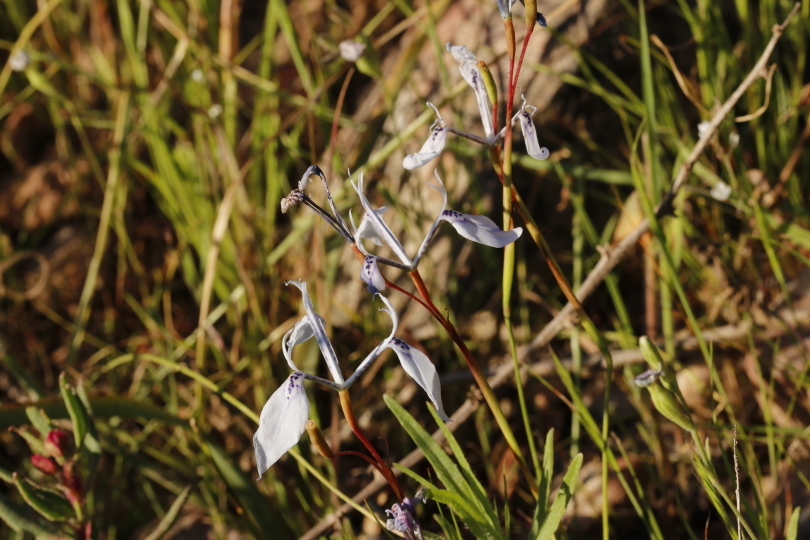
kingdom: Plantae
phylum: Tracheophyta
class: Liliopsida
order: Asparagales
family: Iridaceae
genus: Moraea
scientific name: Moraea tripetala
